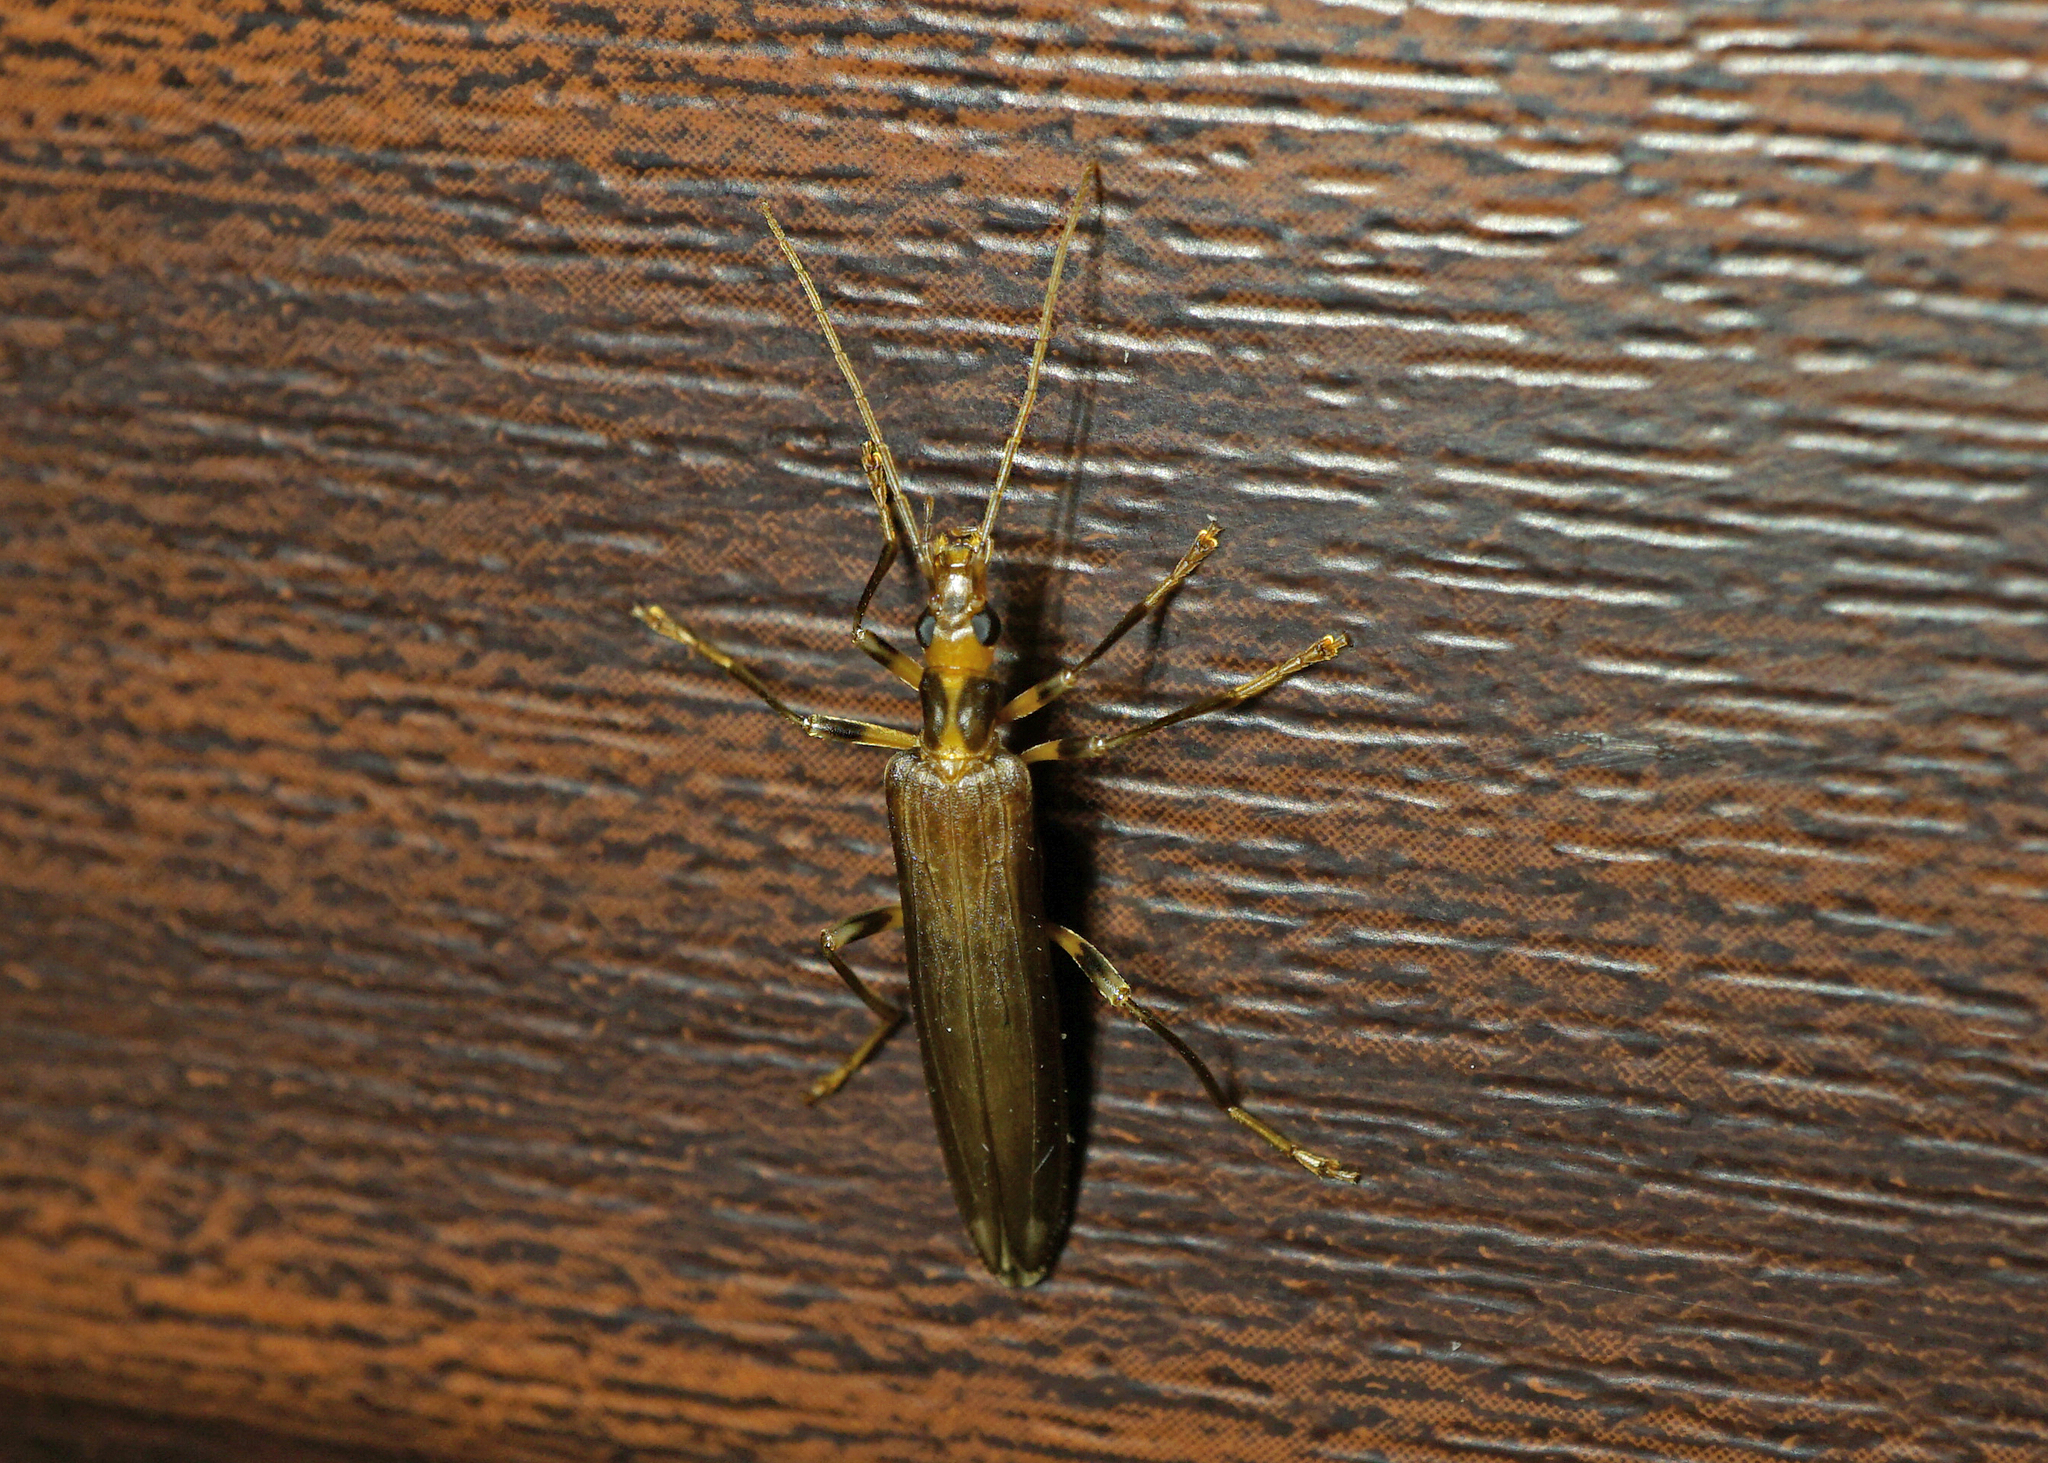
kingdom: Animalia
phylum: Arthropoda
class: Insecta
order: Coleoptera
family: Oedemeridae
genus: Oedemera
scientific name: Oedemera femoralis
